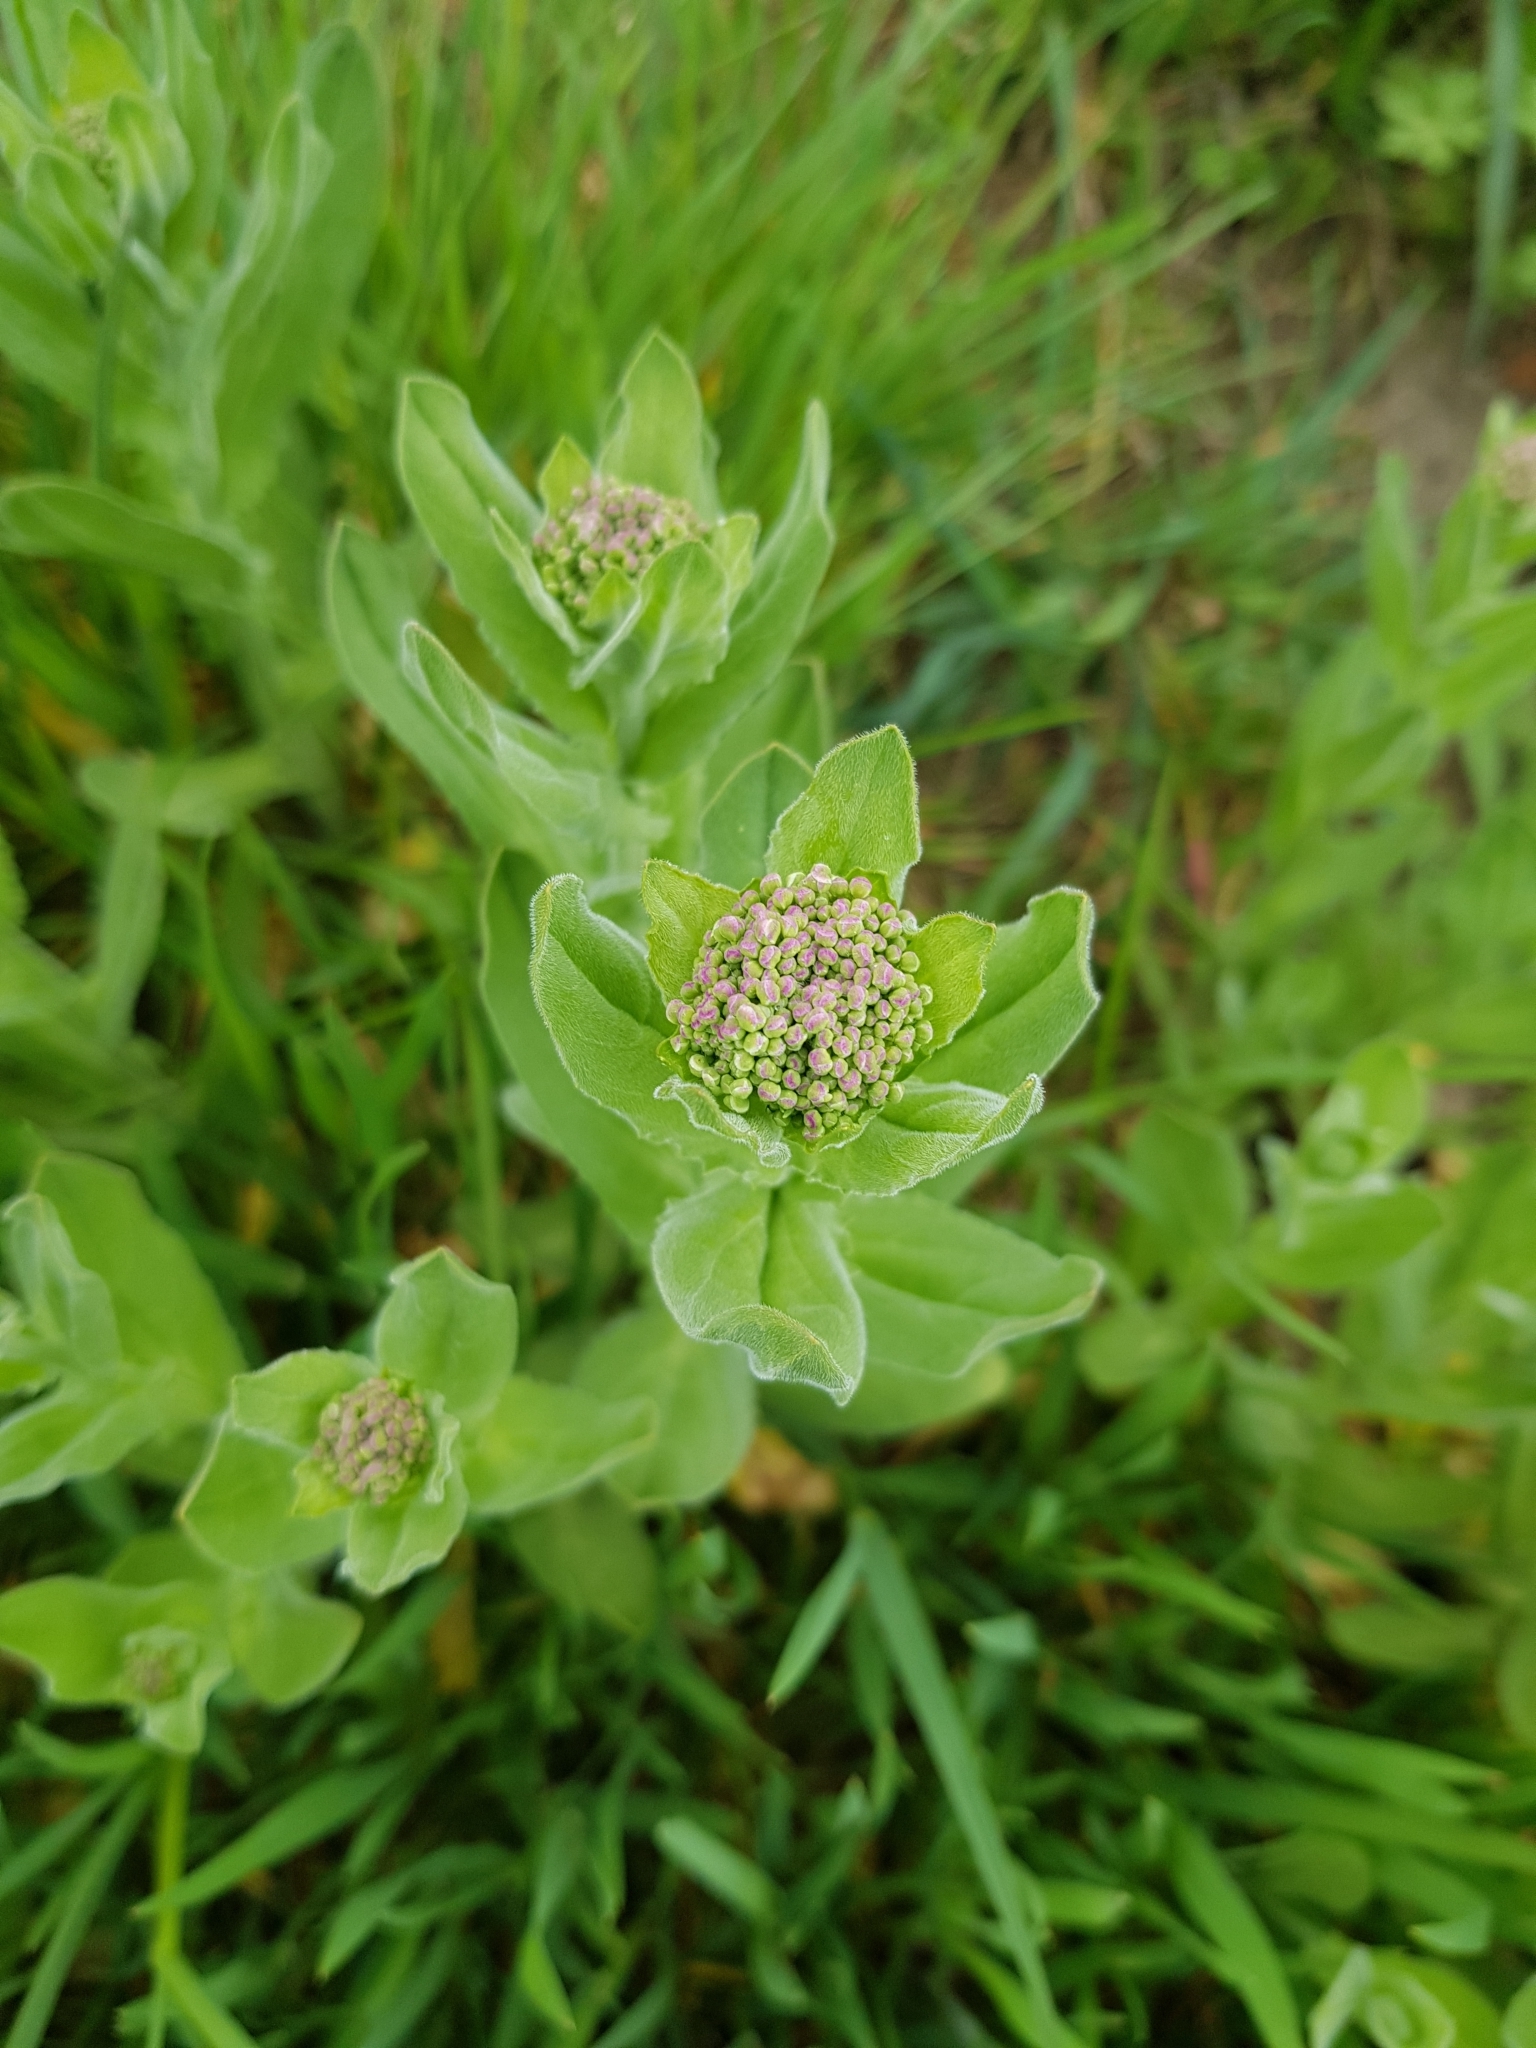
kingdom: Plantae
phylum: Tracheophyta
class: Magnoliopsida
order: Brassicales
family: Brassicaceae
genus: Lepidium
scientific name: Lepidium draba
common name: Hoary cress
